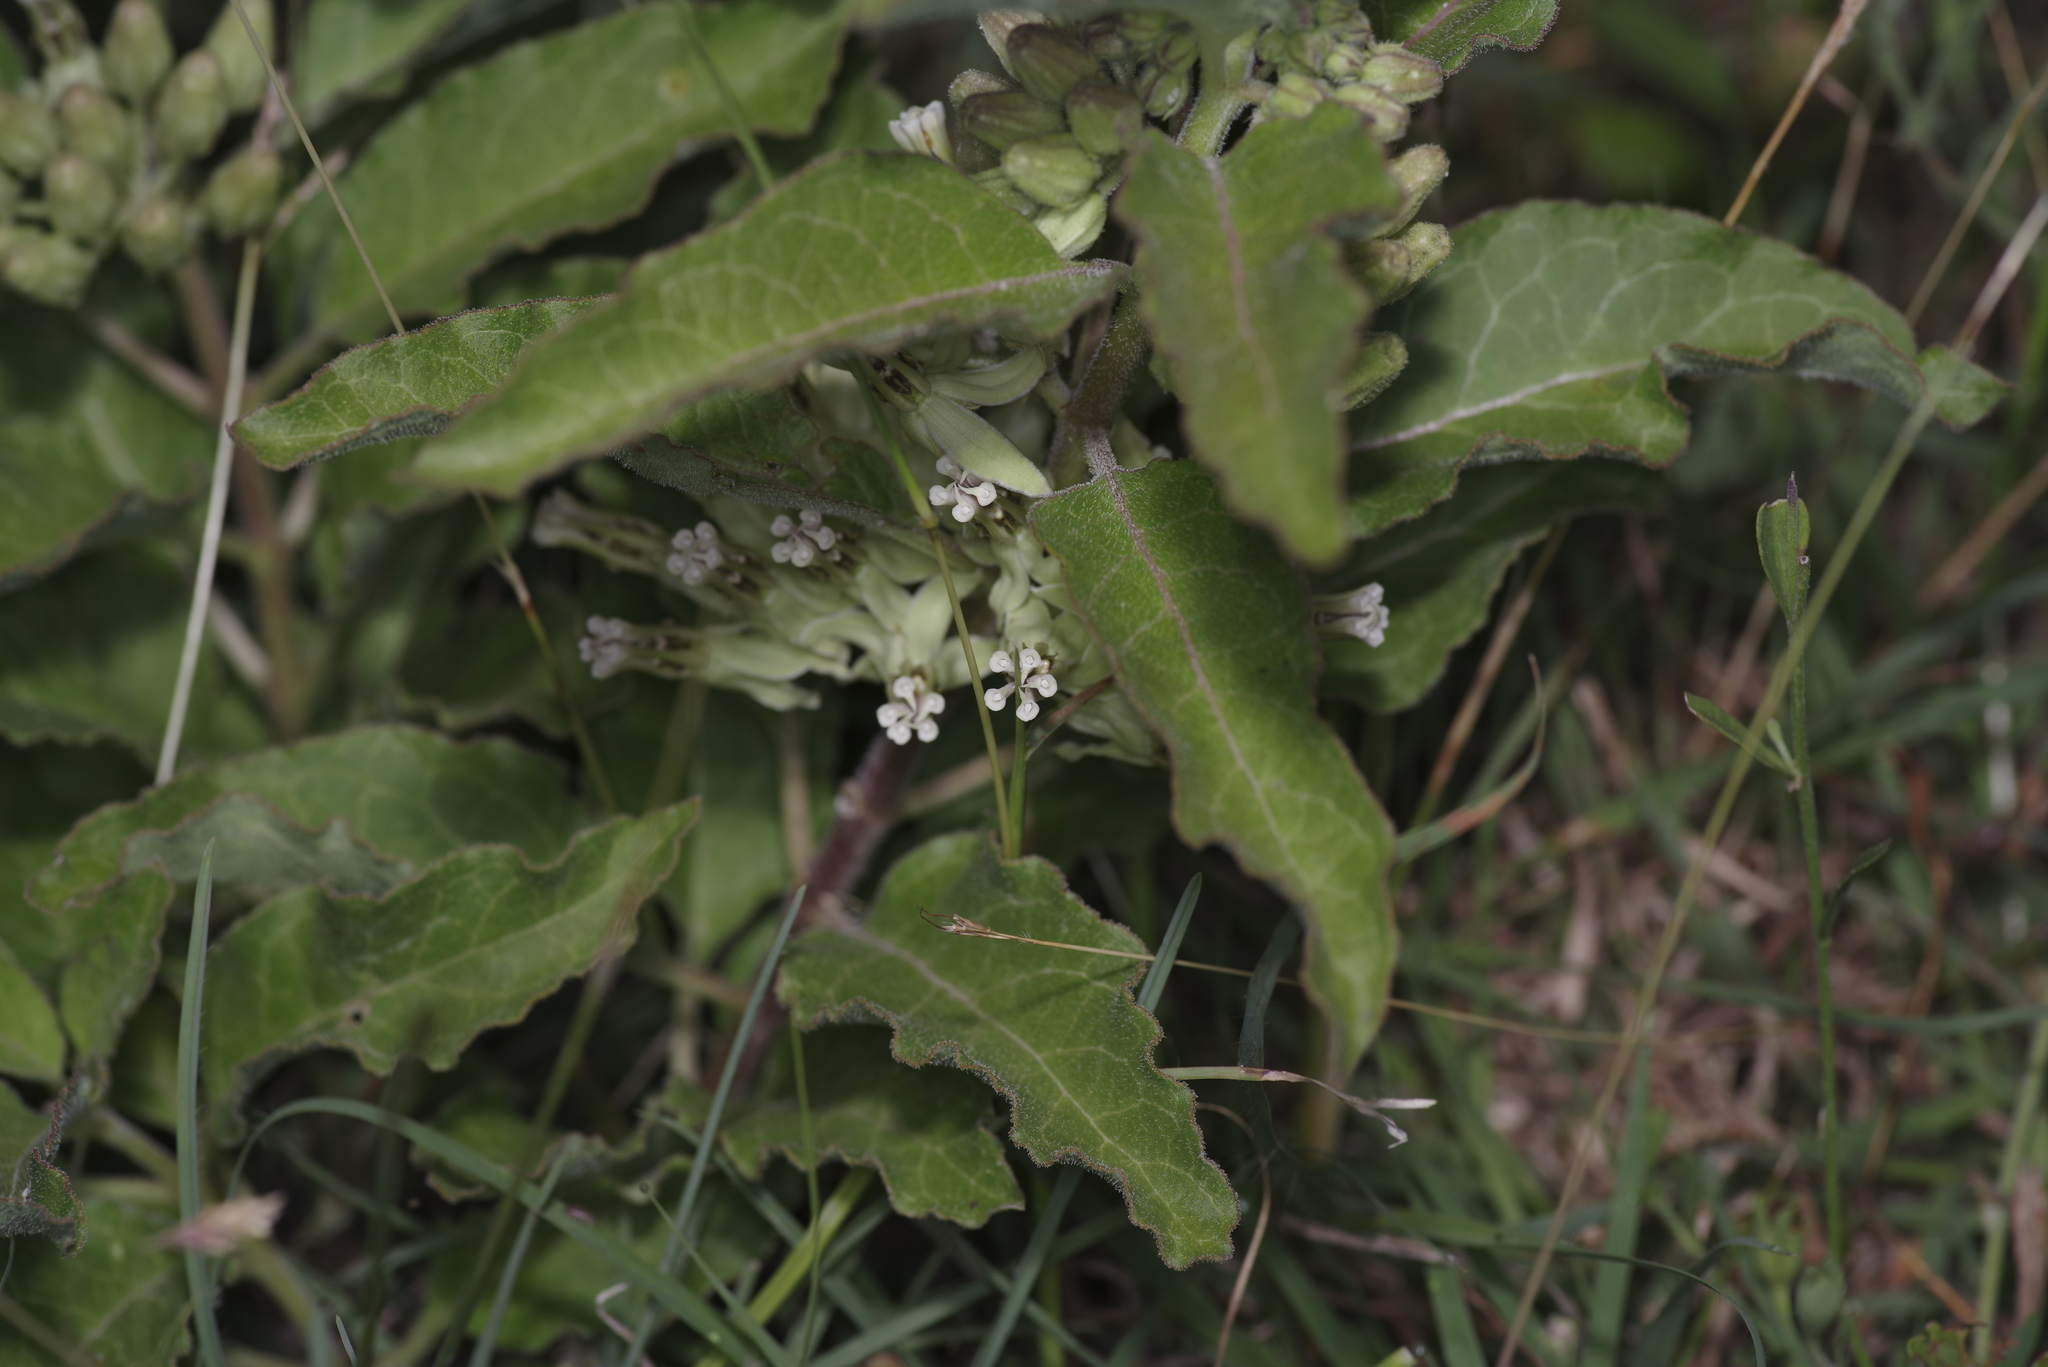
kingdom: Plantae
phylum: Tracheophyta
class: Magnoliopsida
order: Gentianales
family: Apocynaceae
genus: Asclepias
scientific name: Asclepias oenotheroides
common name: Zizotes milkweed
